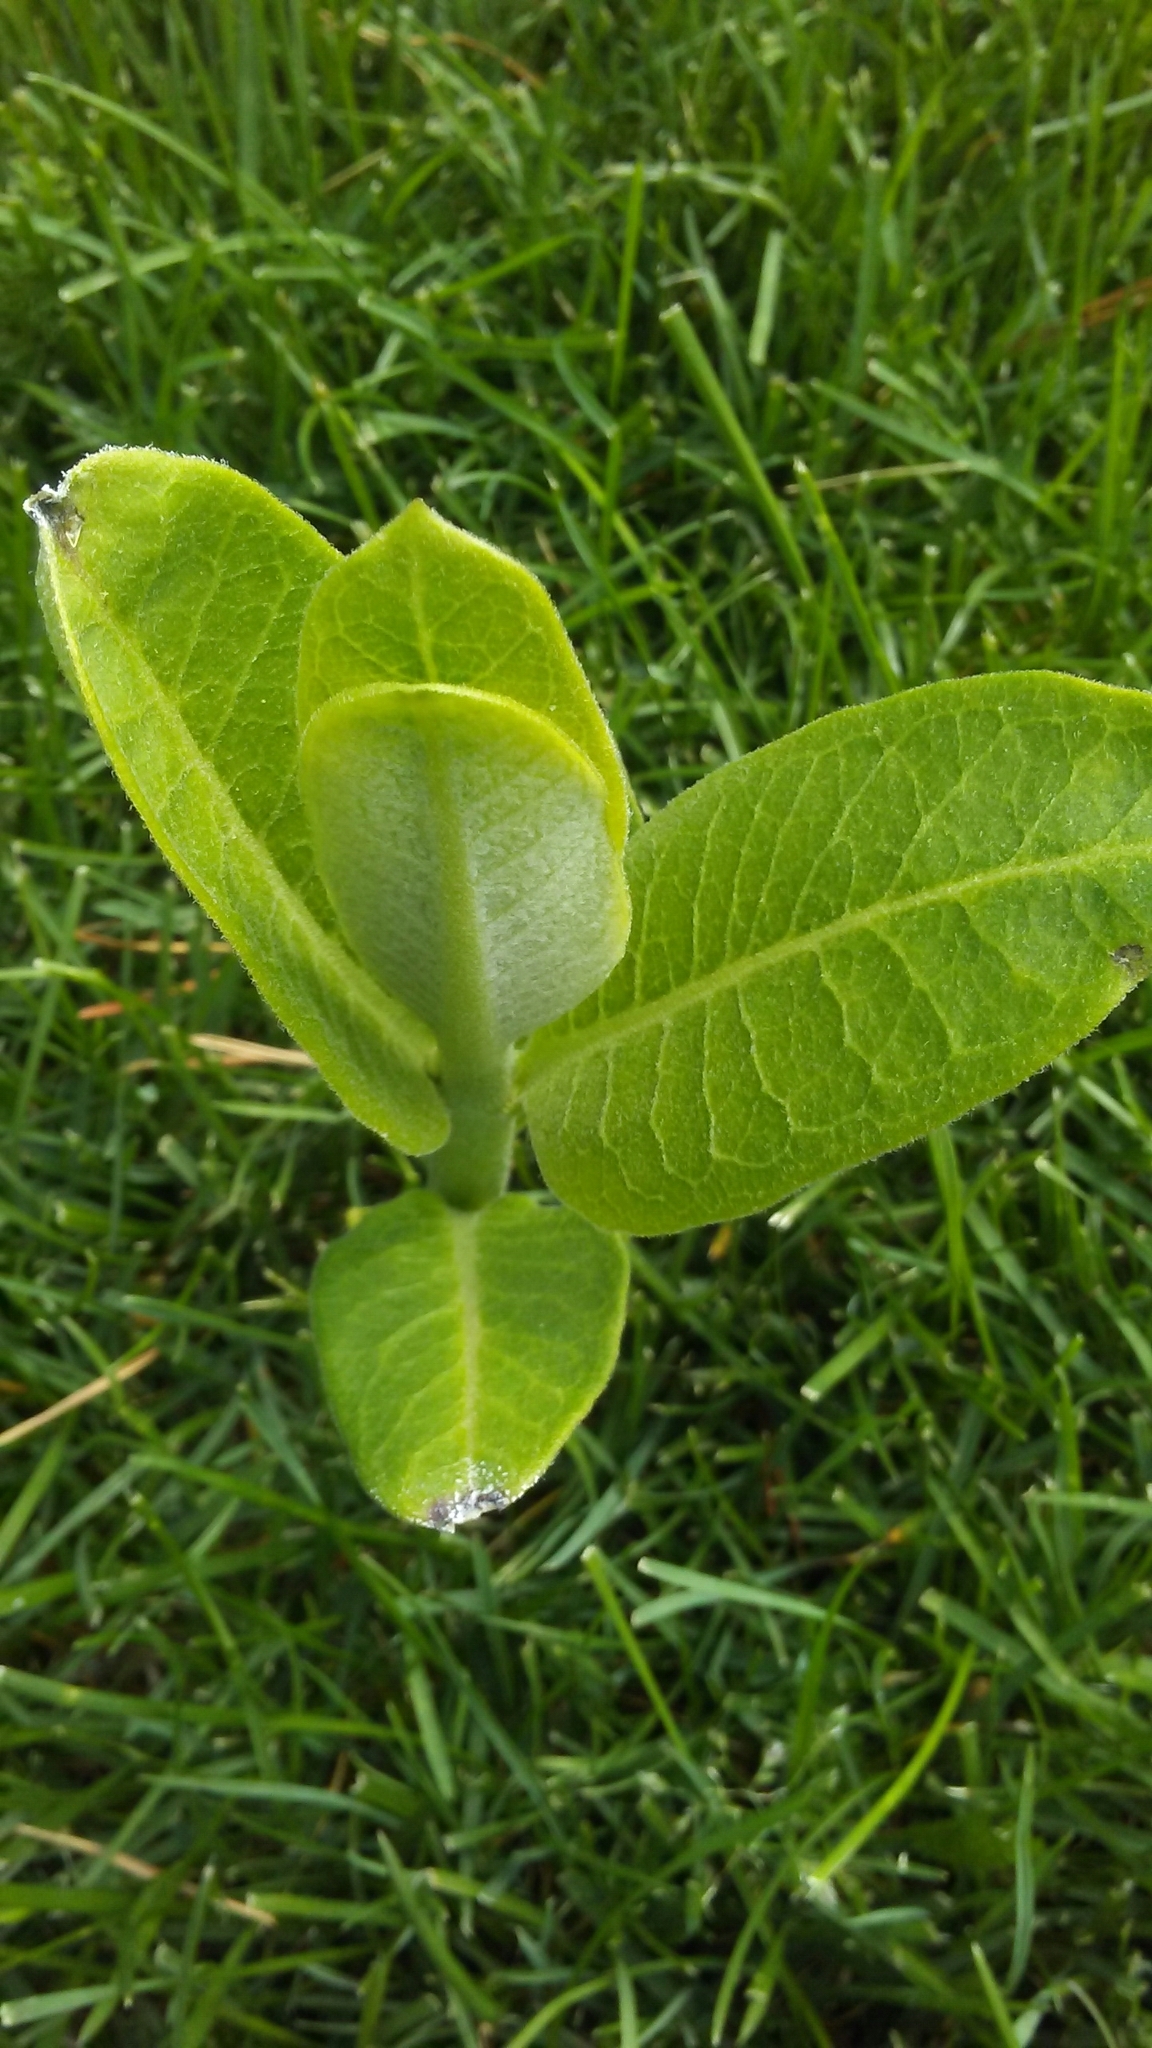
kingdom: Plantae
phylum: Tracheophyta
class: Magnoliopsida
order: Gentianales
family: Apocynaceae
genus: Asclepias
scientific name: Asclepias syriaca
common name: Common milkweed
